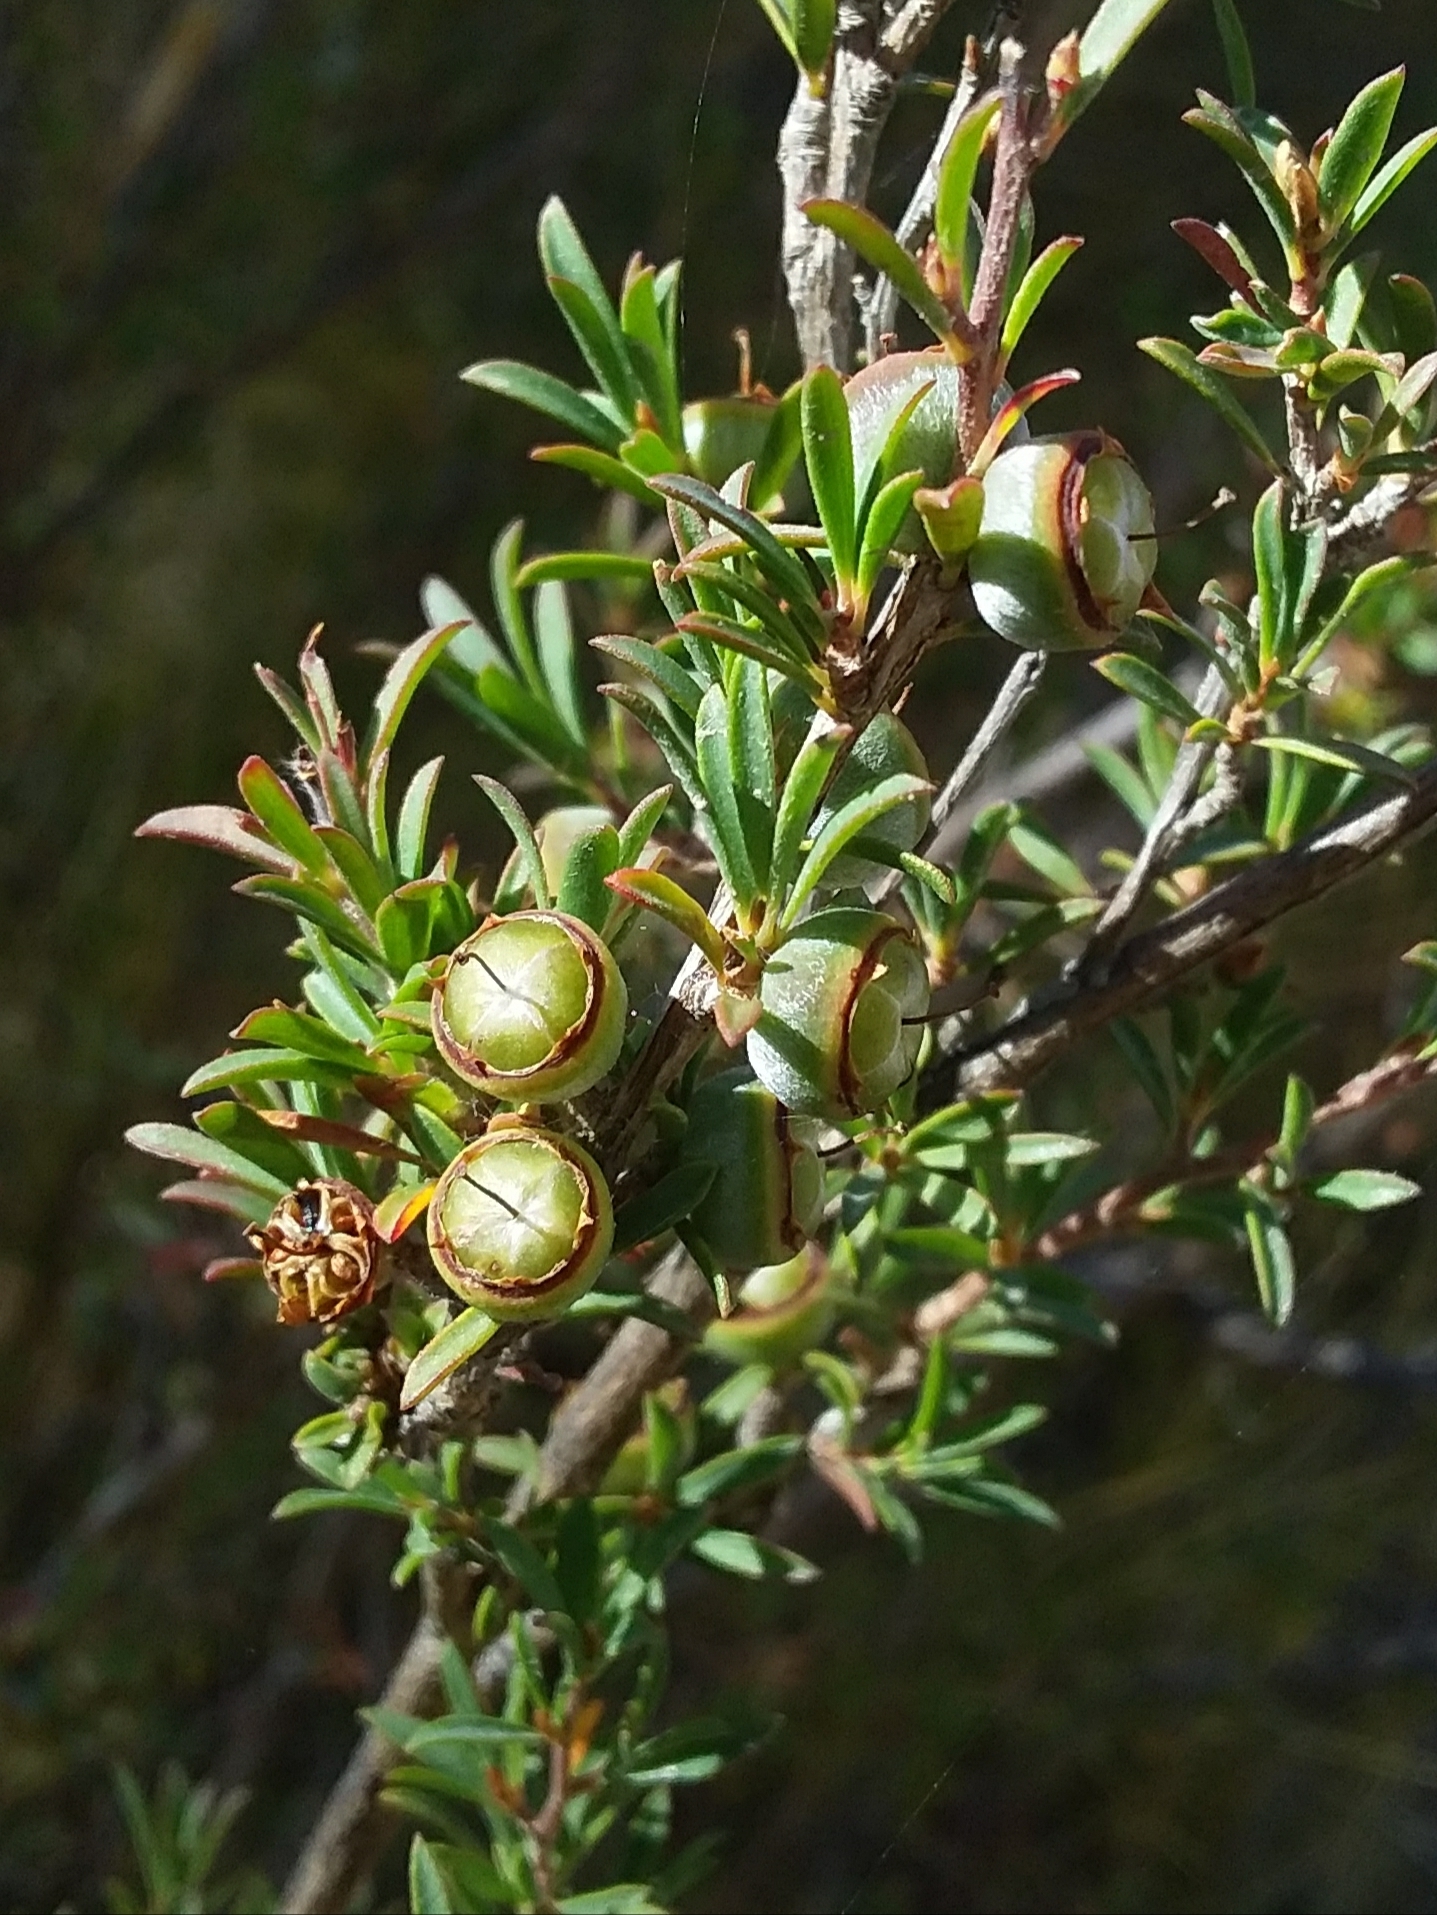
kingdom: Plantae
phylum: Tracheophyta
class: Magnoliopsida
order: Myrtales
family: Myrtaceae
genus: Leptospermum
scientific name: Leptospermum myrsinoides
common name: Heath teatree
